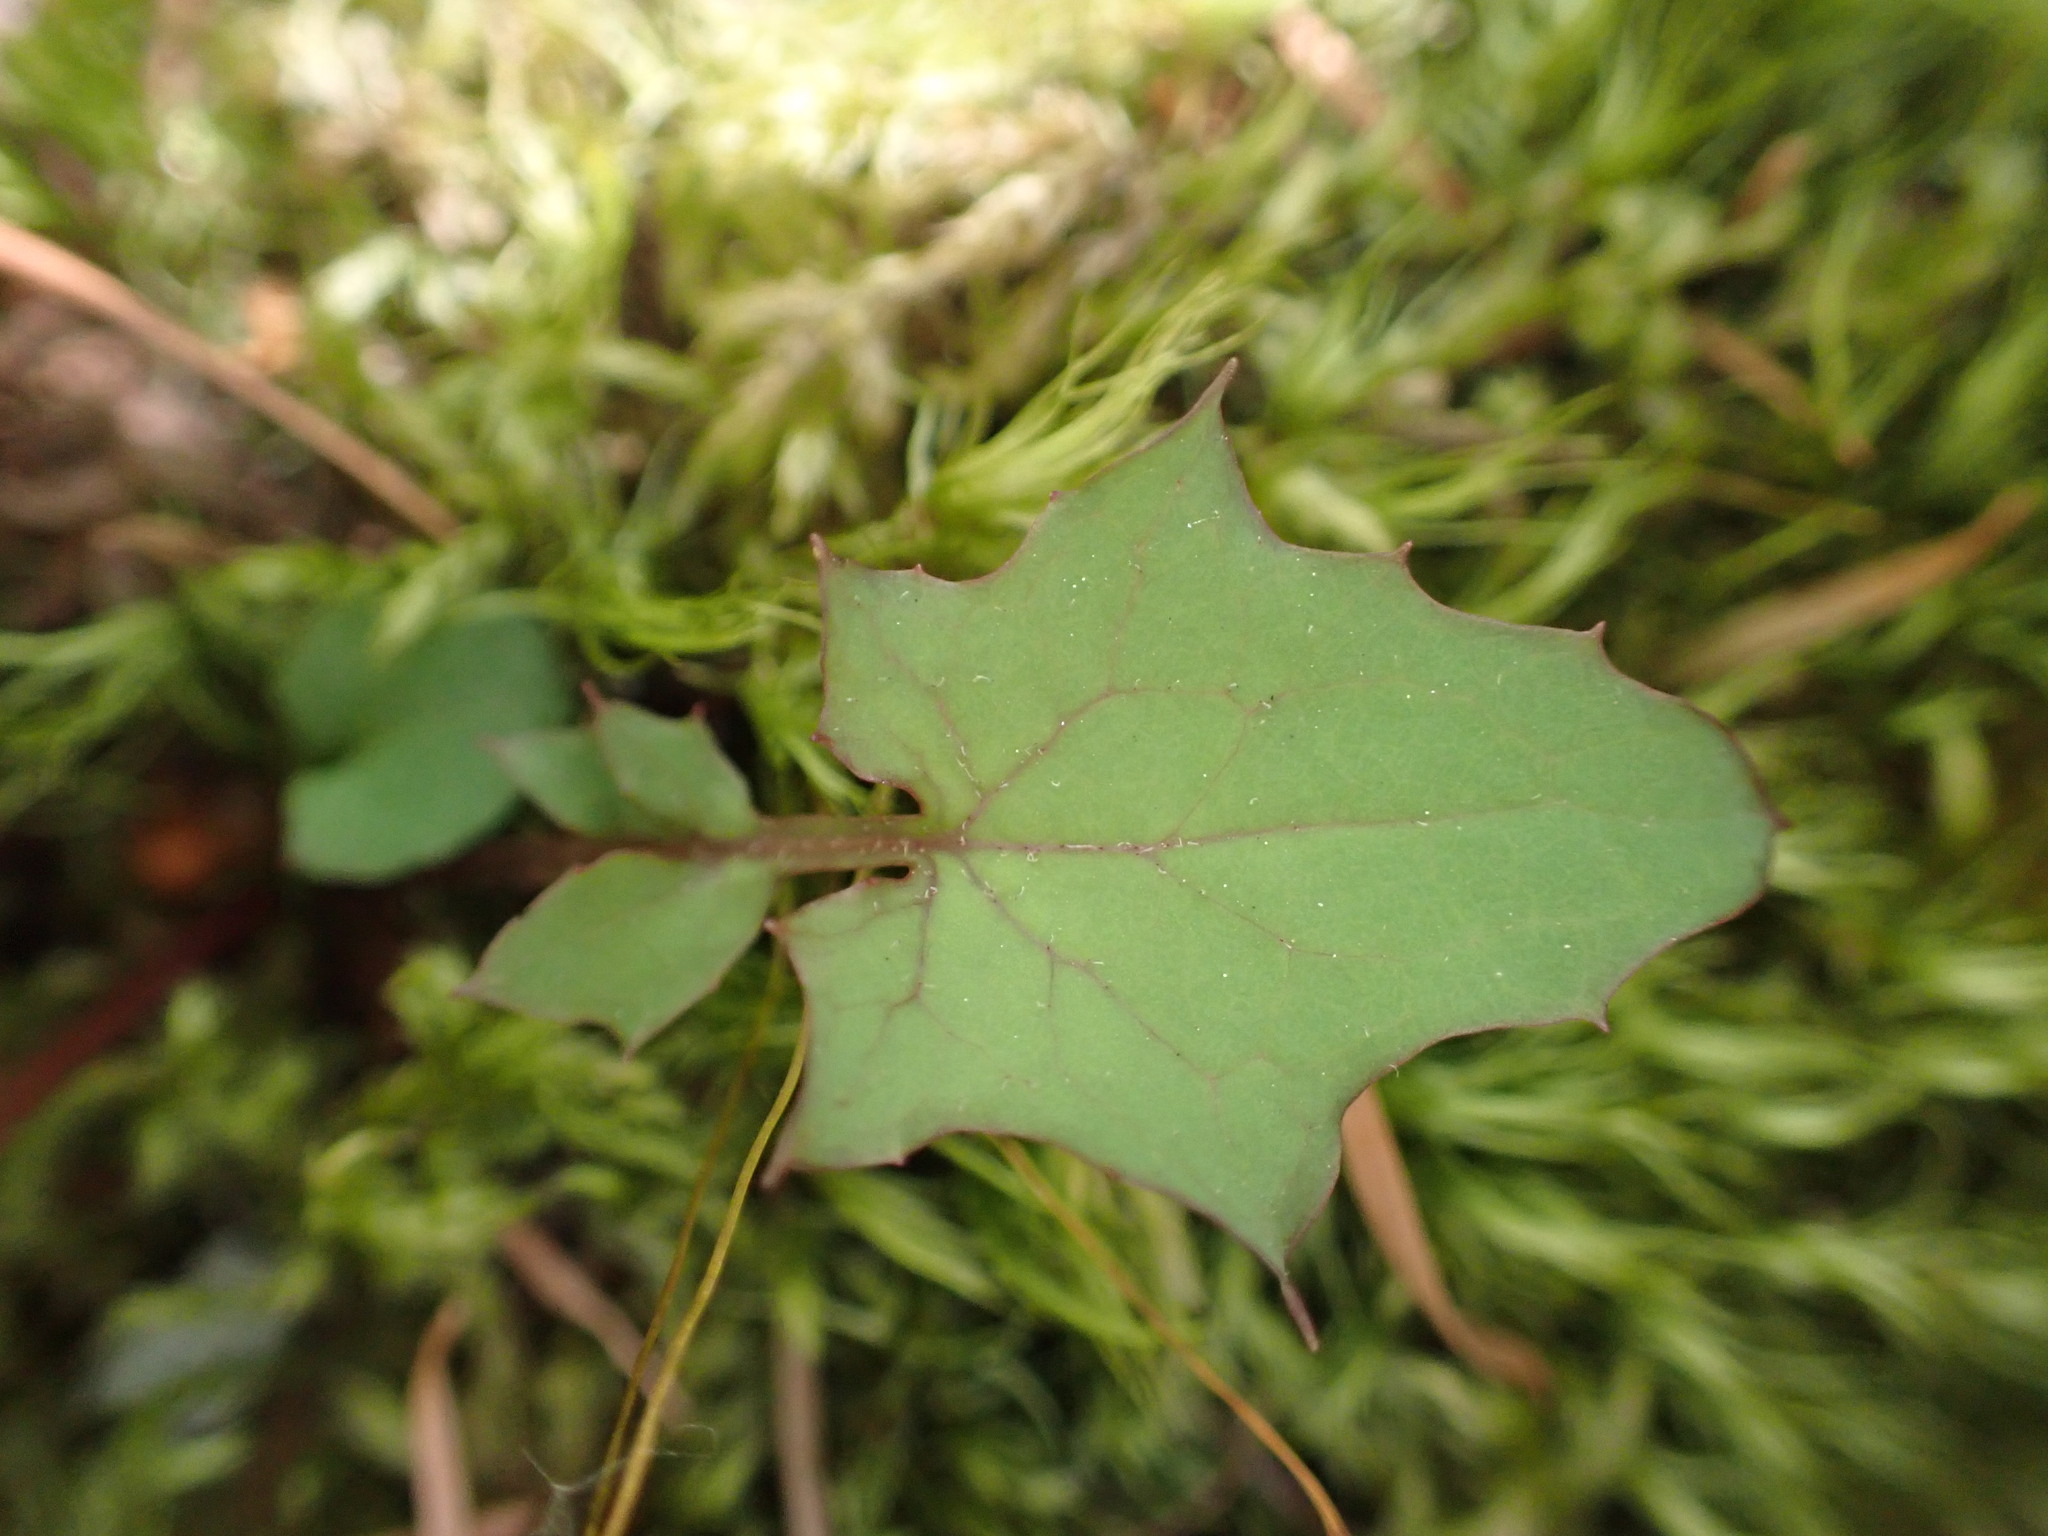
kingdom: Plantae
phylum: Tracheophyta
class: Magnoliopsida
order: Asterales
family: Asteraceae
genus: Mycelis
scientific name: Mycelis muralis
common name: Wall lettuce
